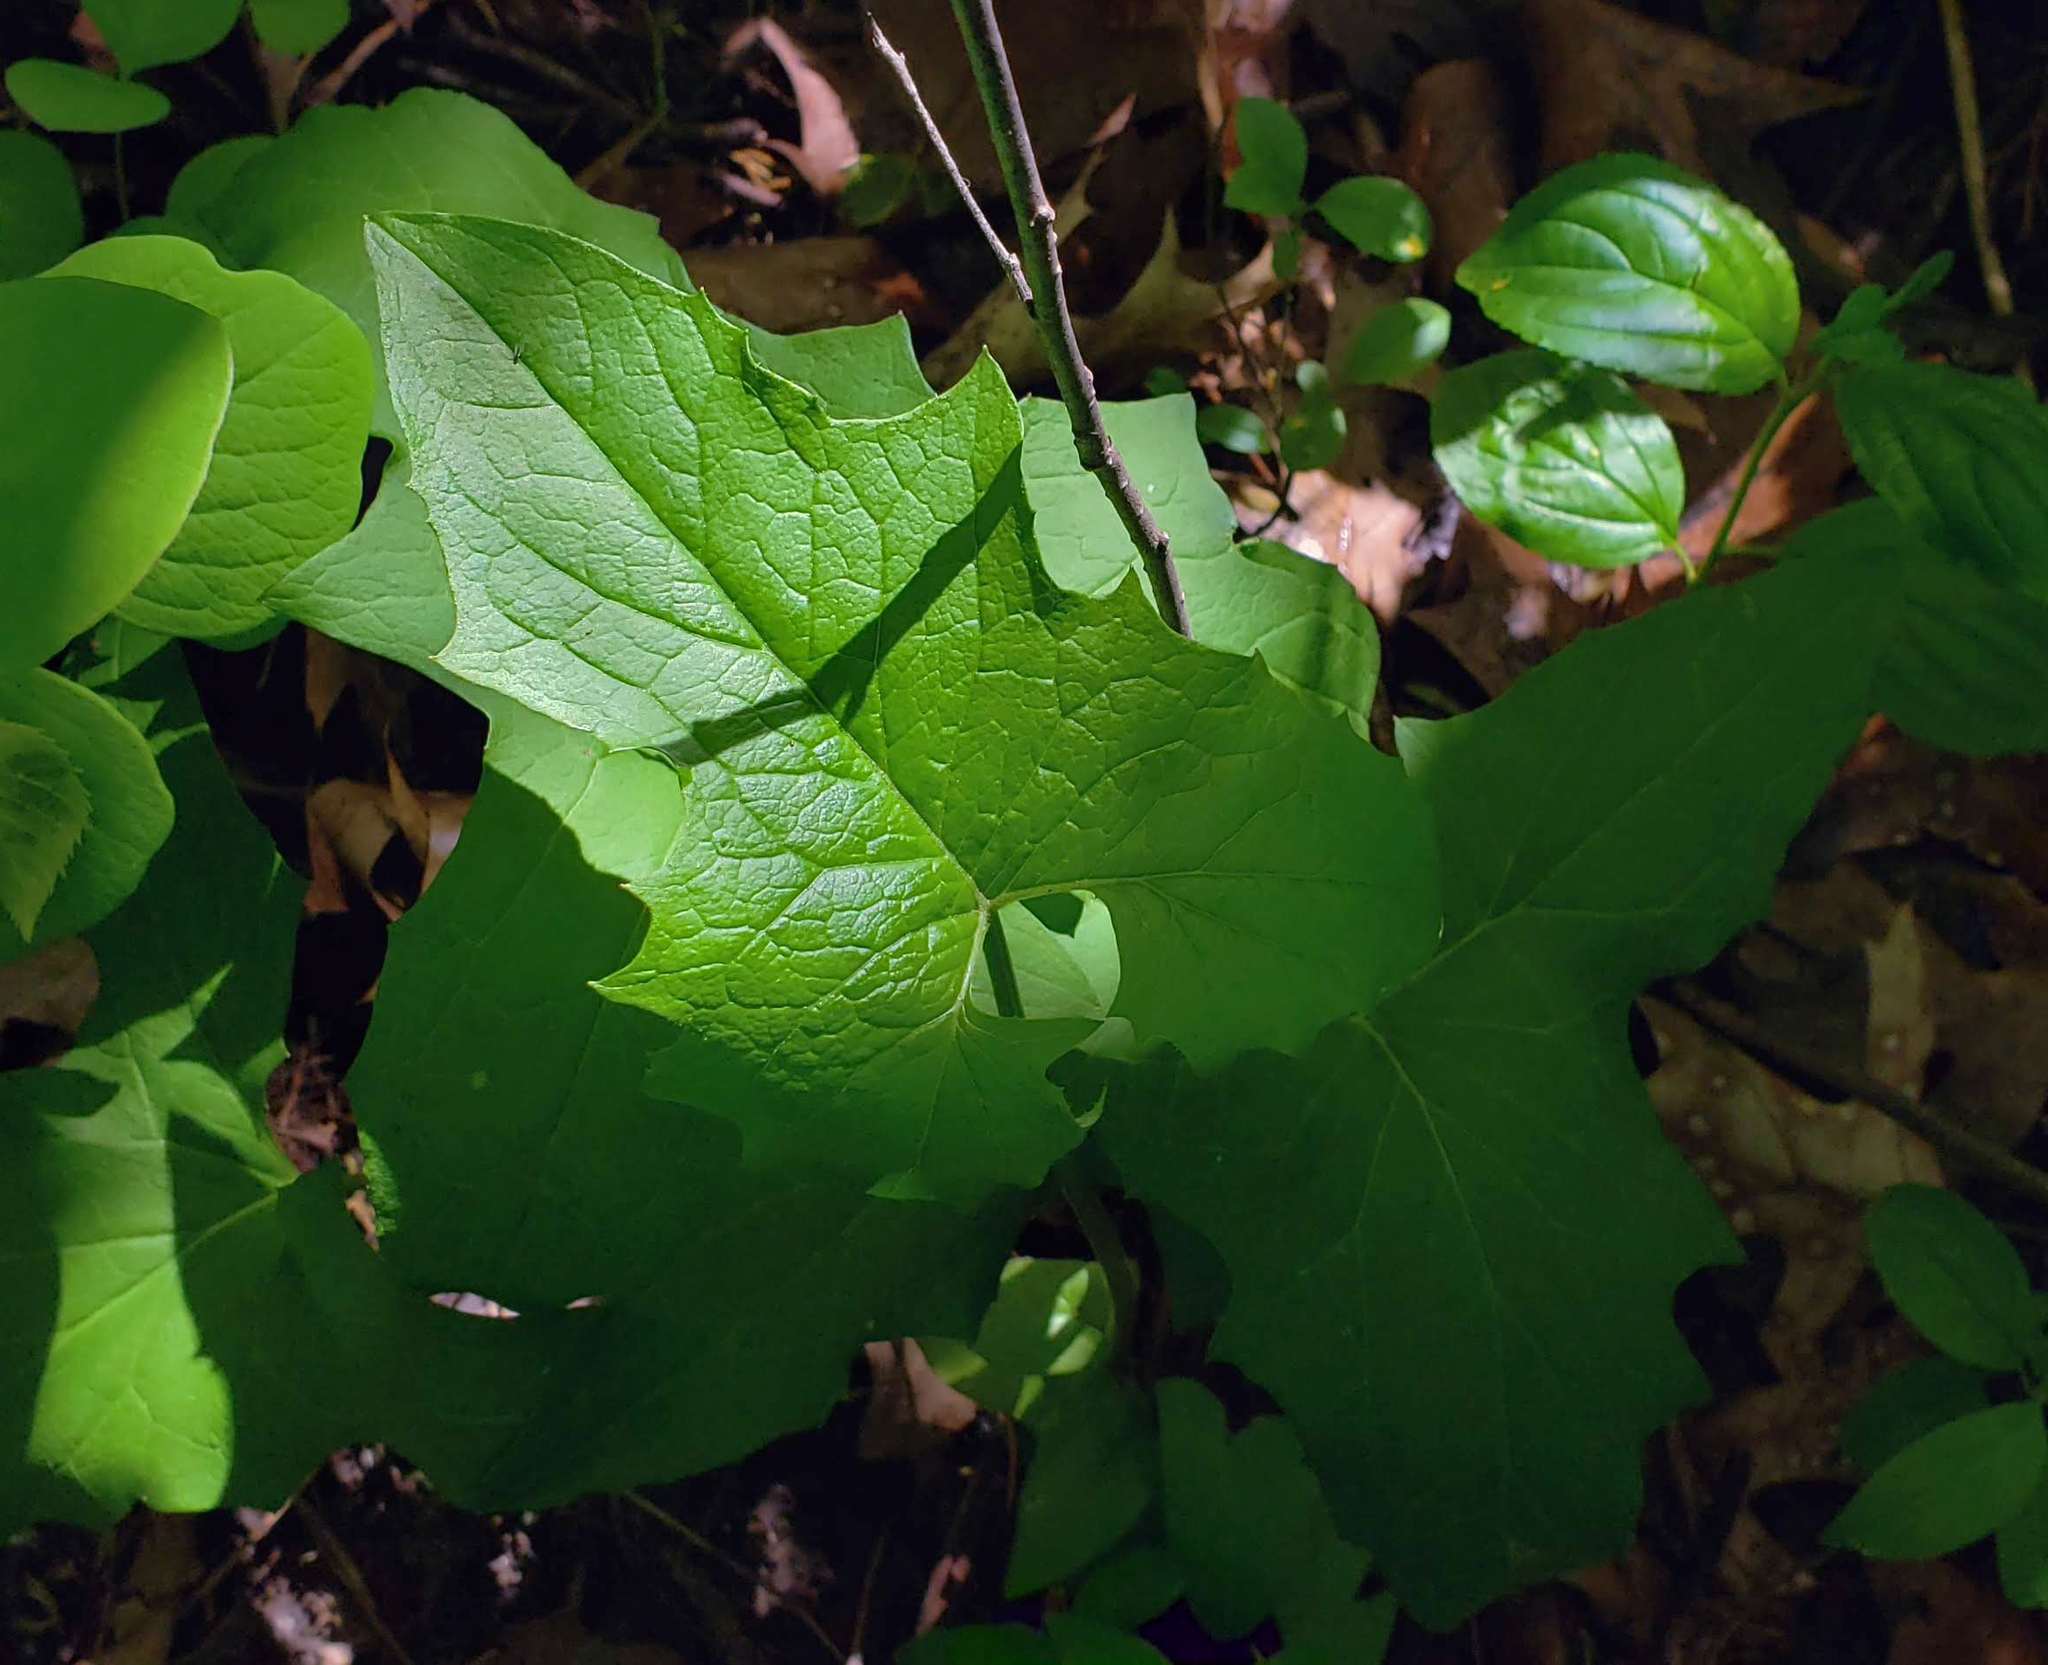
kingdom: Plantae
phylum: Tracheophyta
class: Magnoliopsida
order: Asterales
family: Asteraceae
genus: Nabalus
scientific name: Nabalus albus
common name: White rattlesnakeroot
